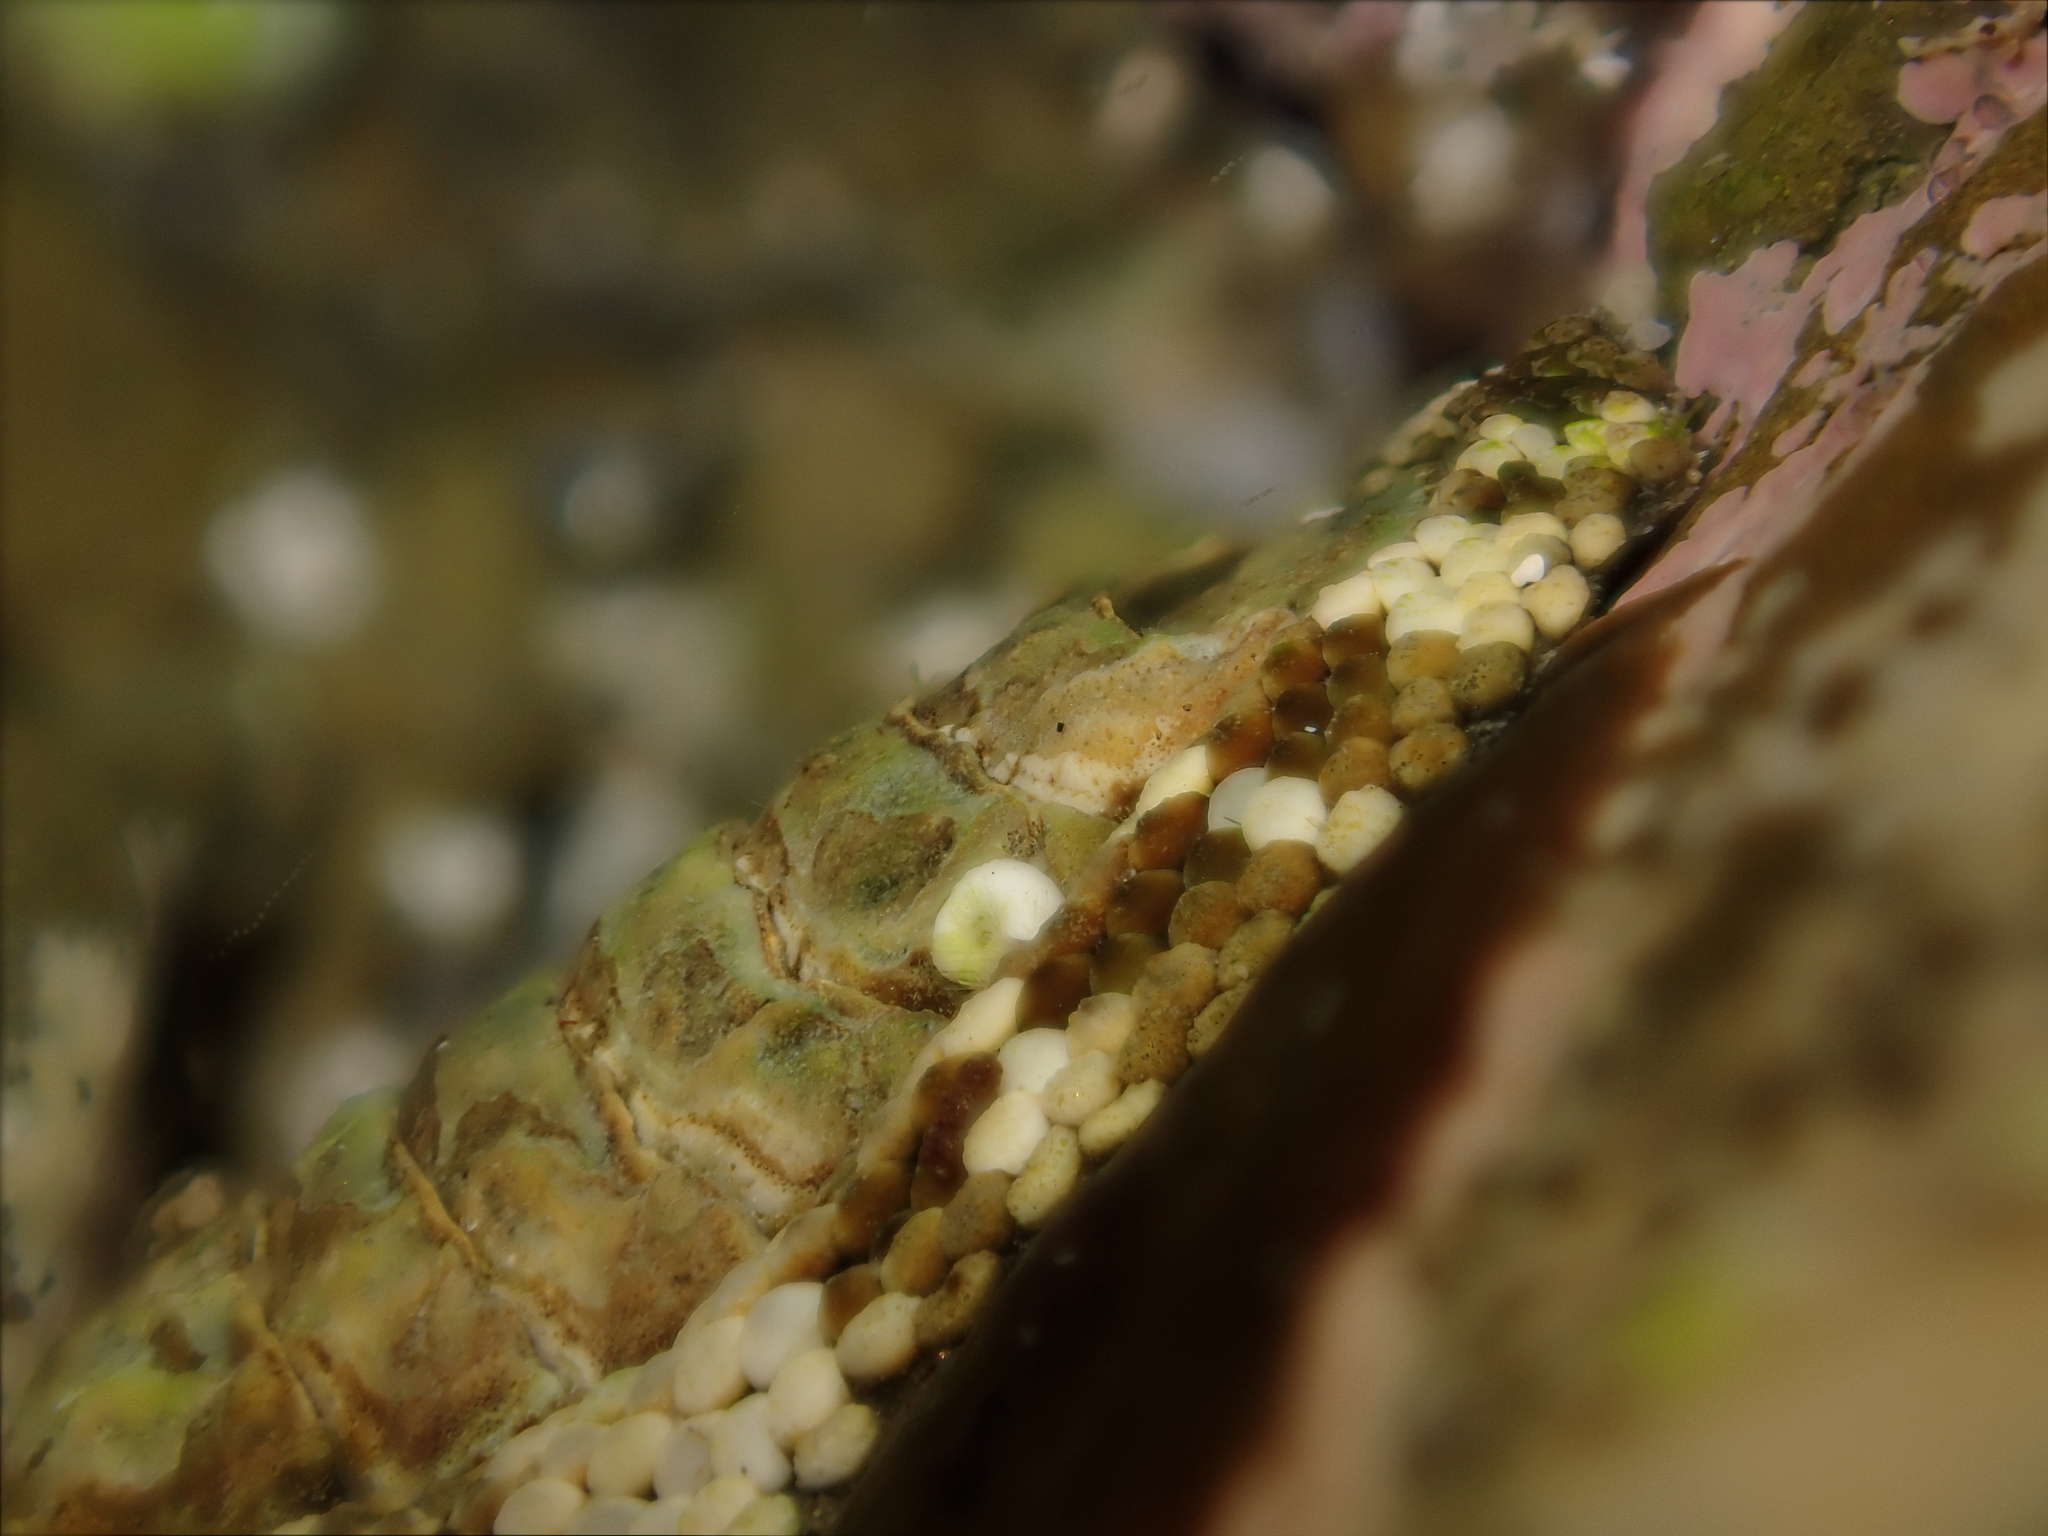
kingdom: Animalia
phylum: Mollusca
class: Polyplacophora
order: Chitonida
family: Chitonidae
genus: Sypharochiton
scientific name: Sypharochiton pelliserpentis
